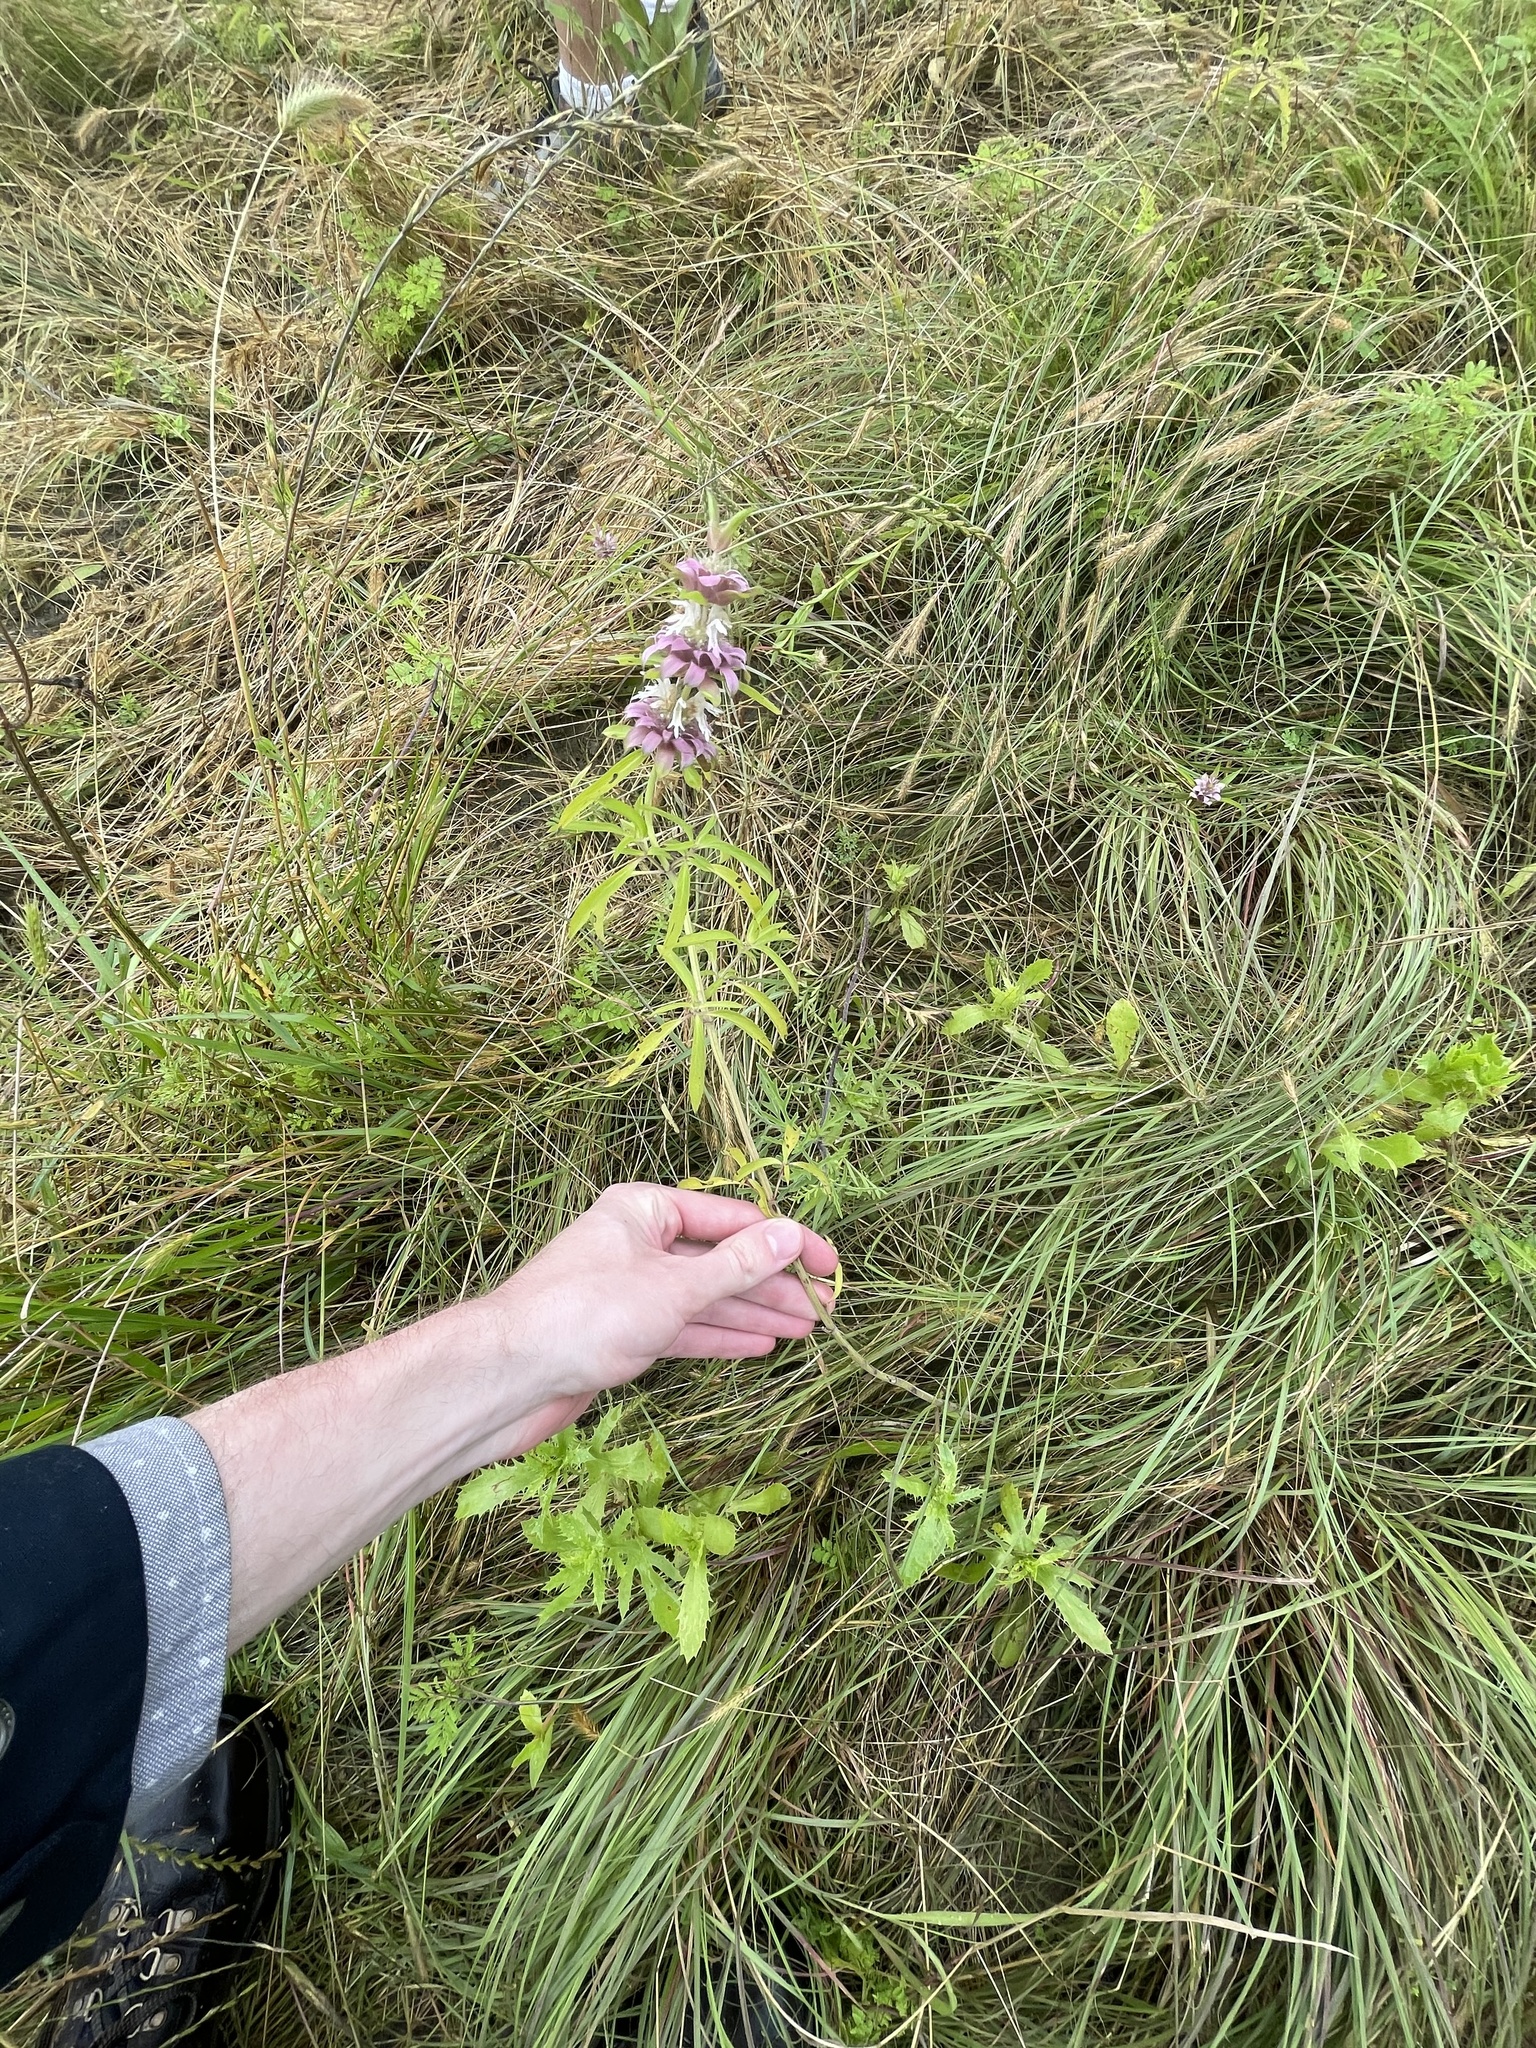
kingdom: Plantae
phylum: Tracheophyta
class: Magnoliopsida
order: Lamiales
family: Lamiaceae
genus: Monarda
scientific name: Monarda citriodora
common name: Lemon beebalm
